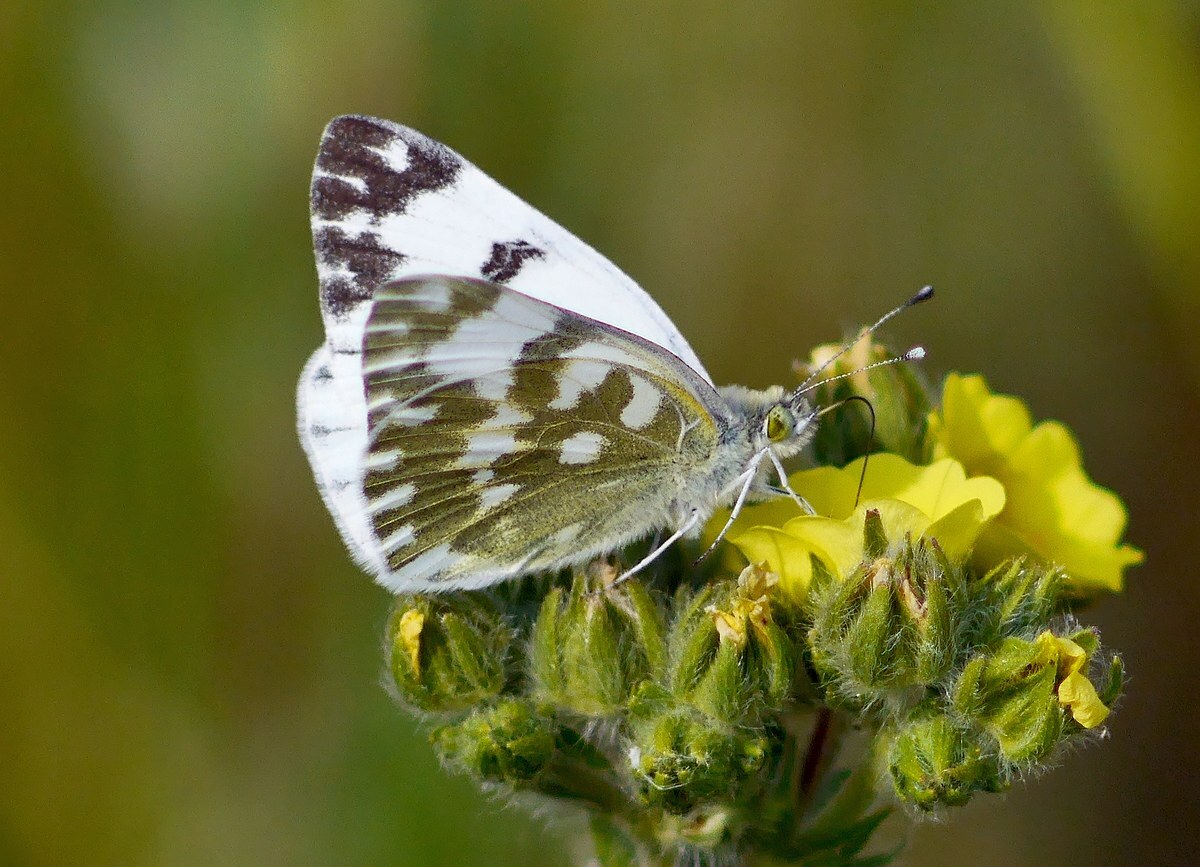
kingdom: Animalia
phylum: Arthropoda
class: Insecta
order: Lepidoptera
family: Pieridae
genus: Pontia
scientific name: Pontia edusa
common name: Eastern bath white
